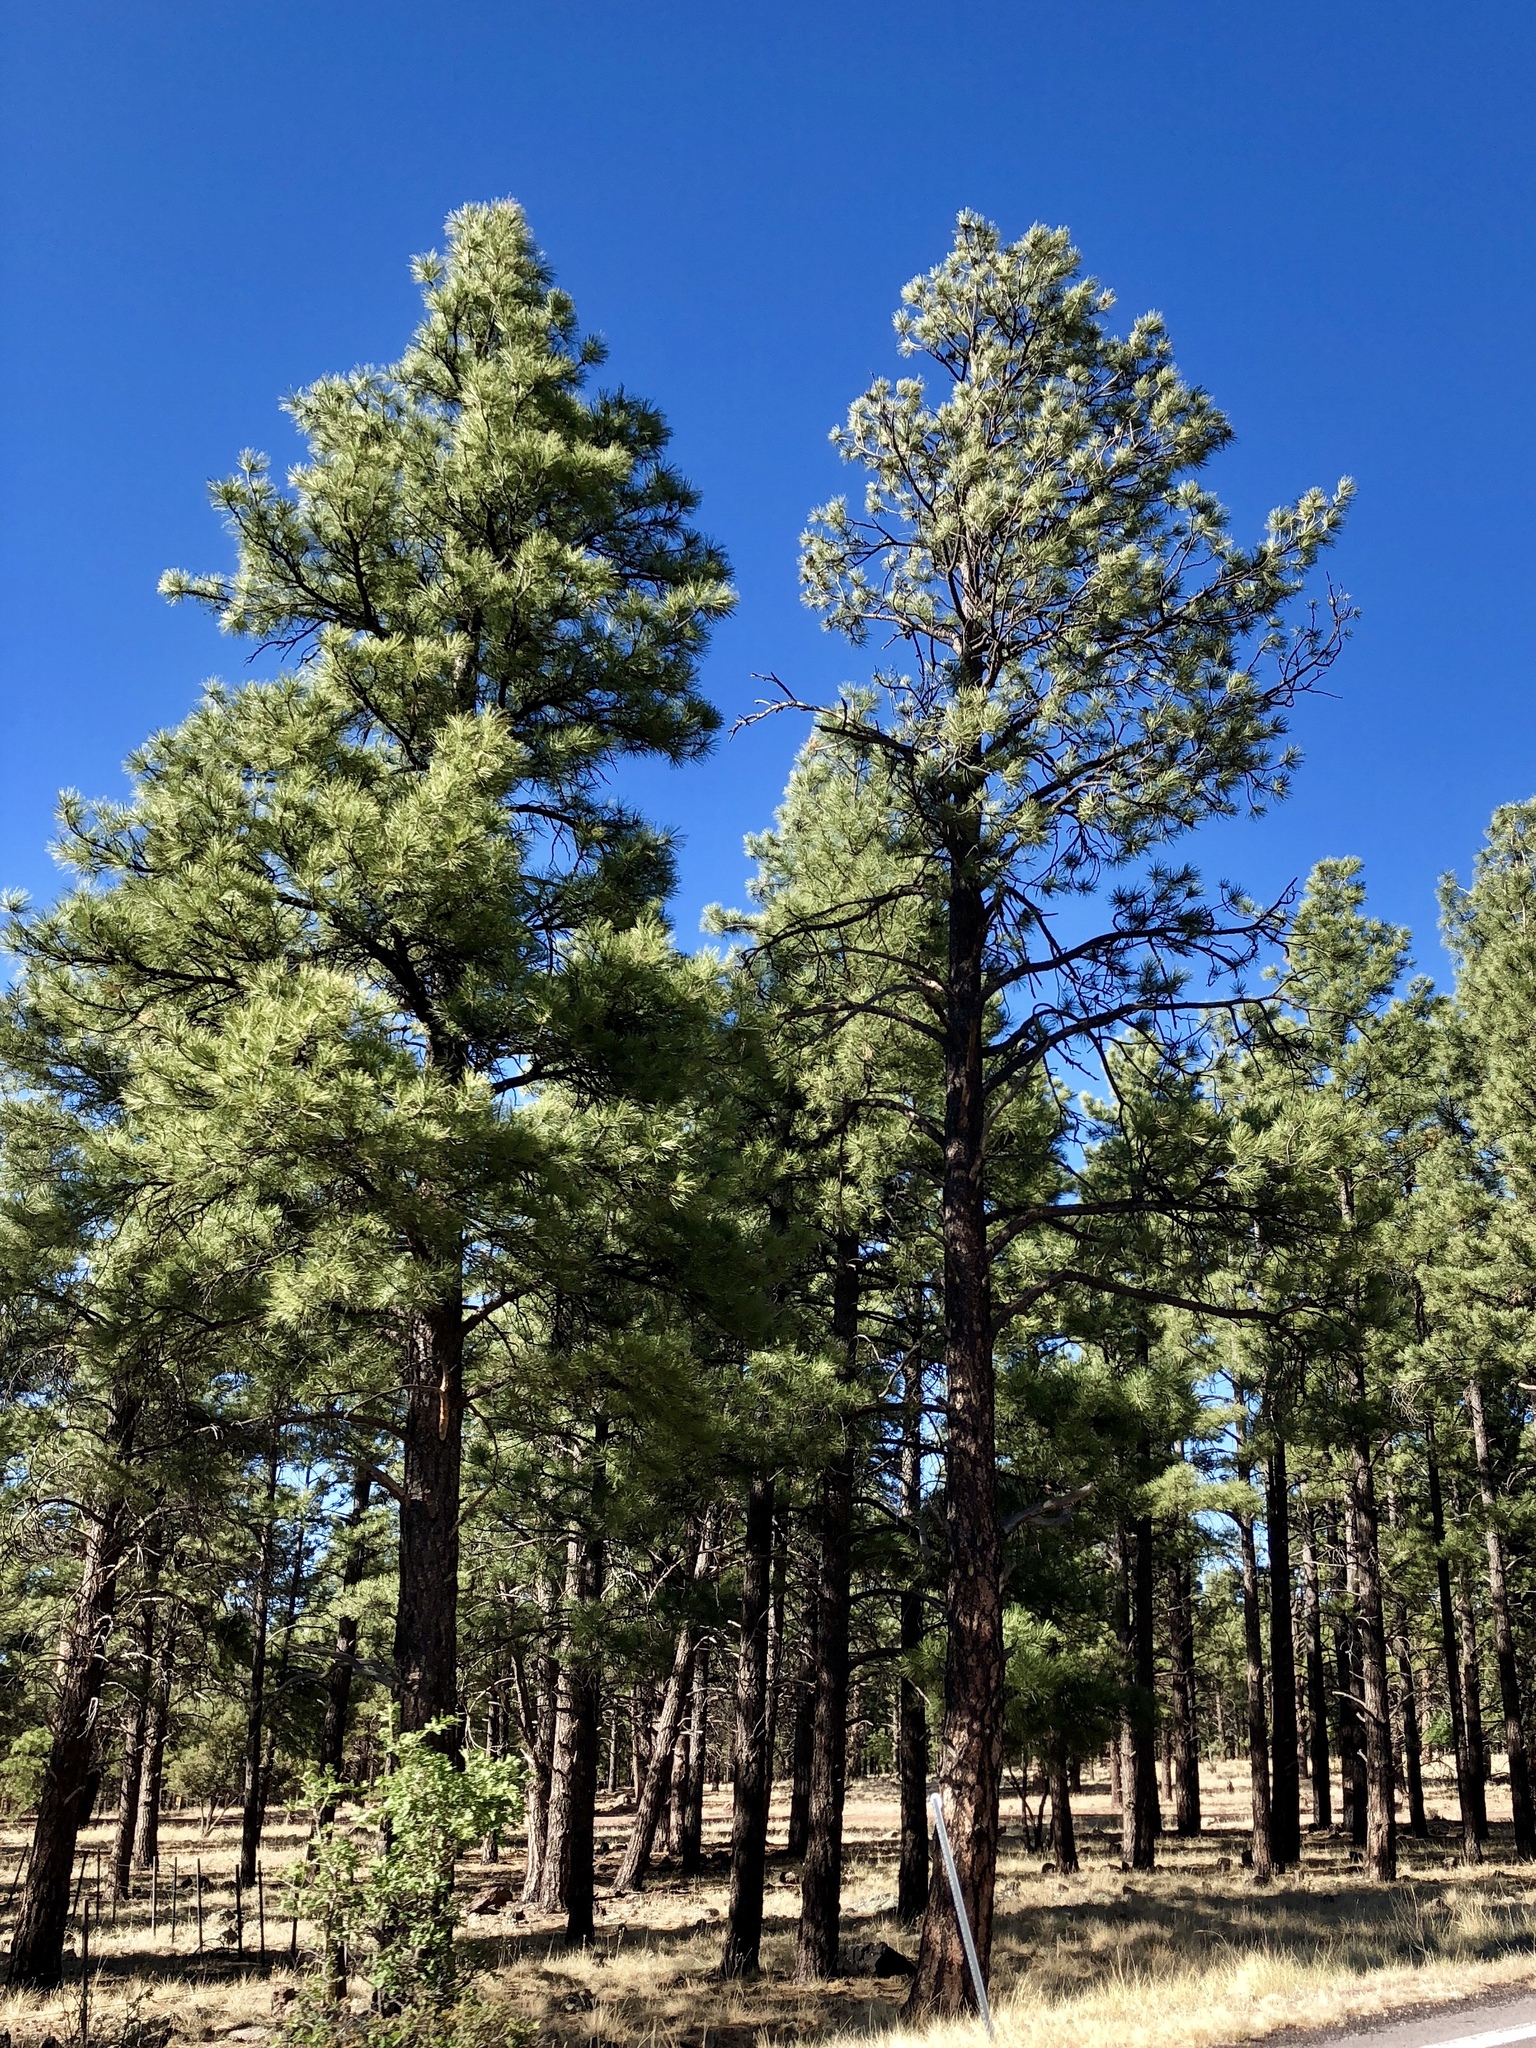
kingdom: Plantae
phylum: Tracheophyta
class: Pinopsida
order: Pinales
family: Pinaceae
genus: Pinus
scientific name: Pinus ponderosa
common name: Western yellow-pine
